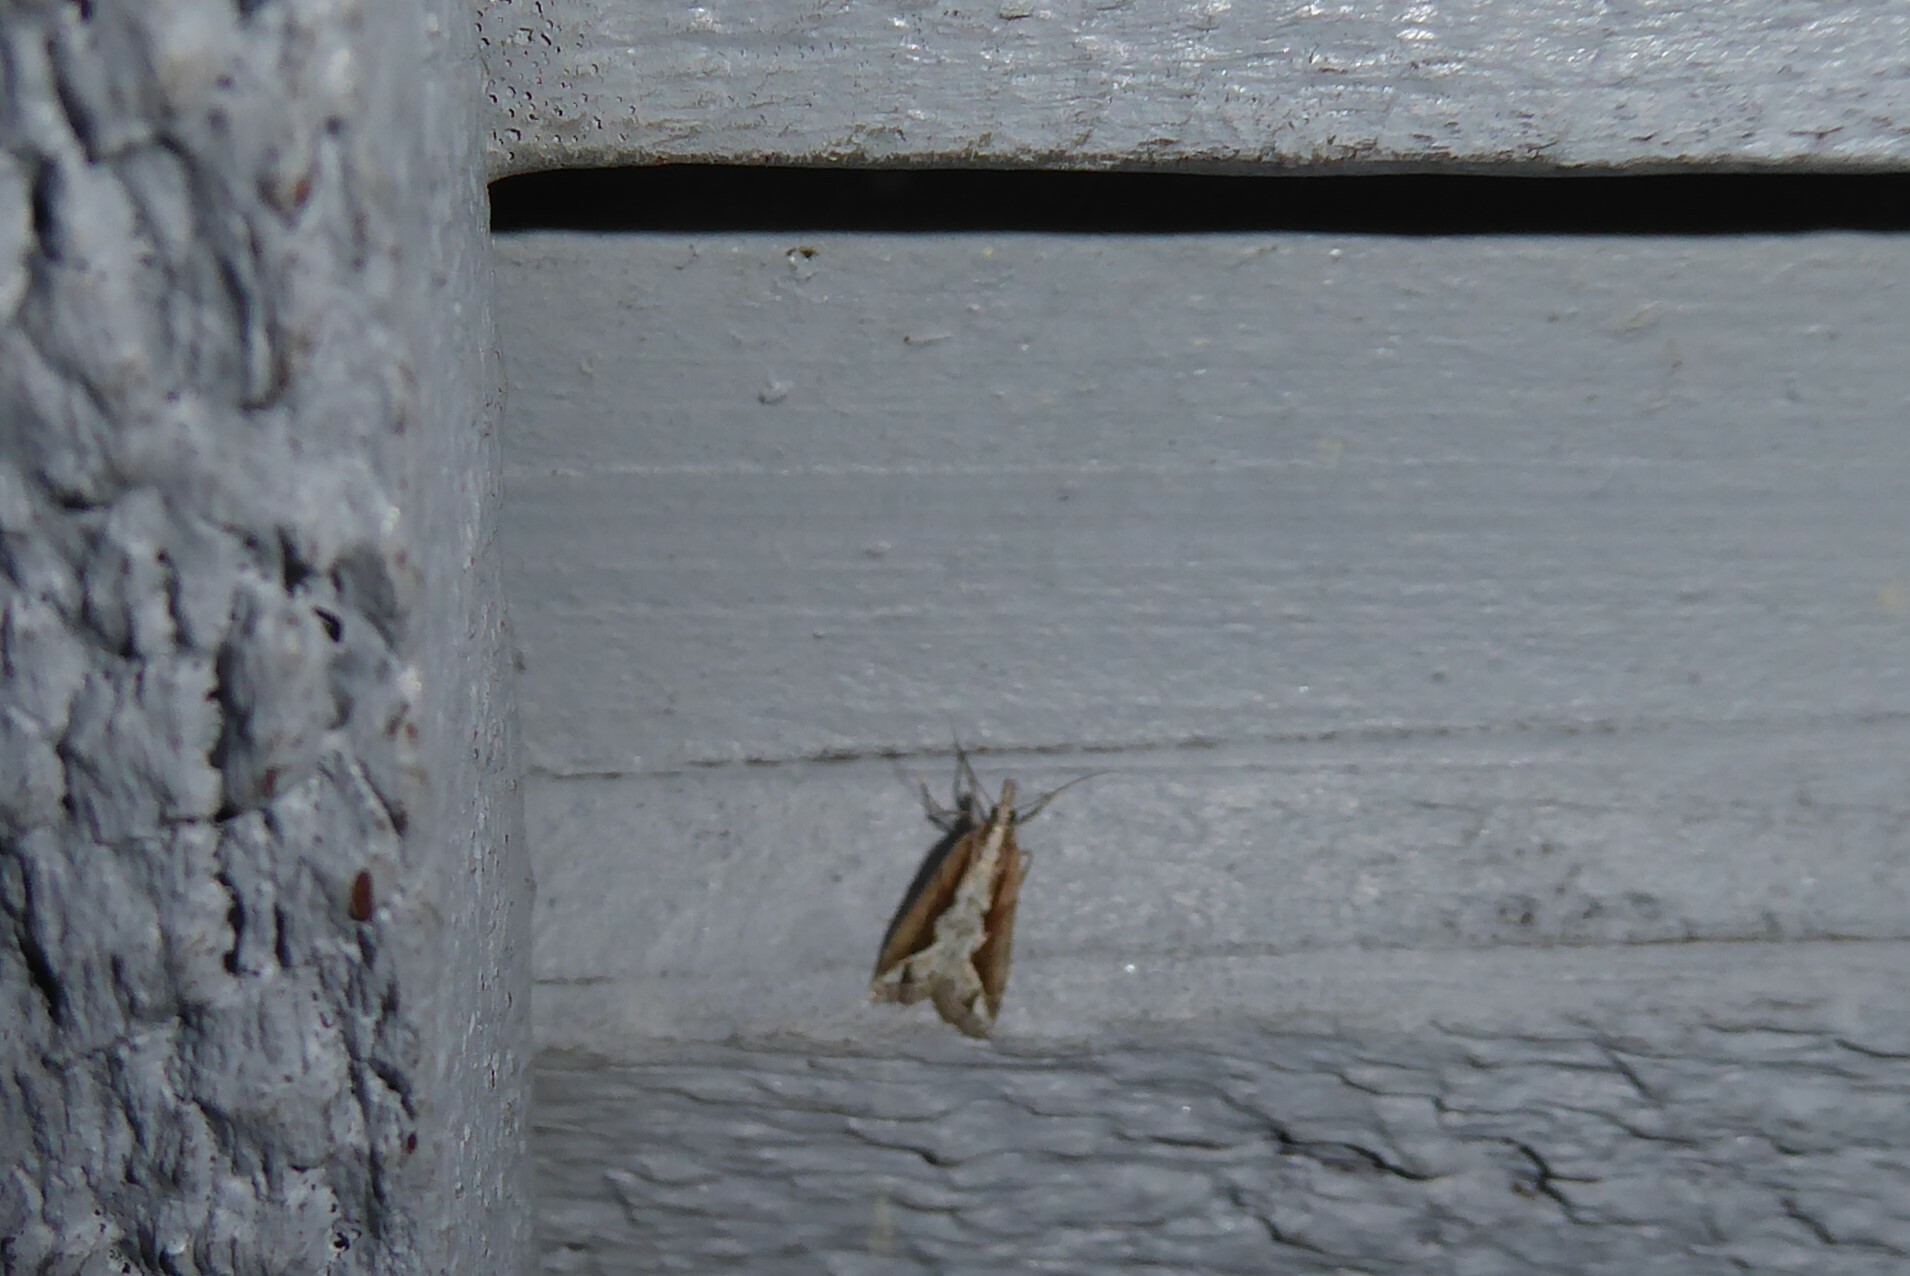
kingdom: Animalia
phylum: Arthropoda
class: Insecta
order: Lepidoptera
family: Crambidae
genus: Eudonia
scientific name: Eudonia steropaea
